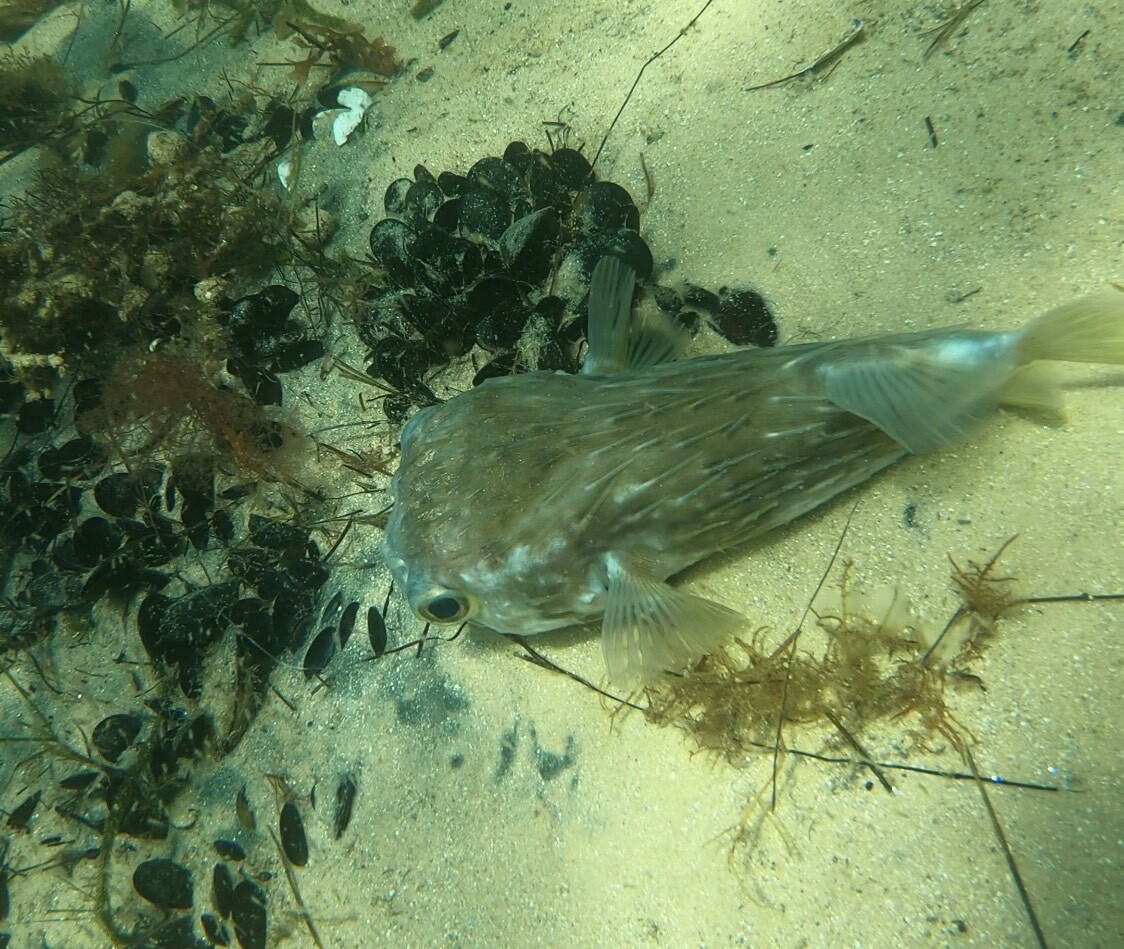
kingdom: Animalia
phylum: Chordata
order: Tetraodontiformes
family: Diodontidae
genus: Diodon
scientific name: Diodon nicthemerus
